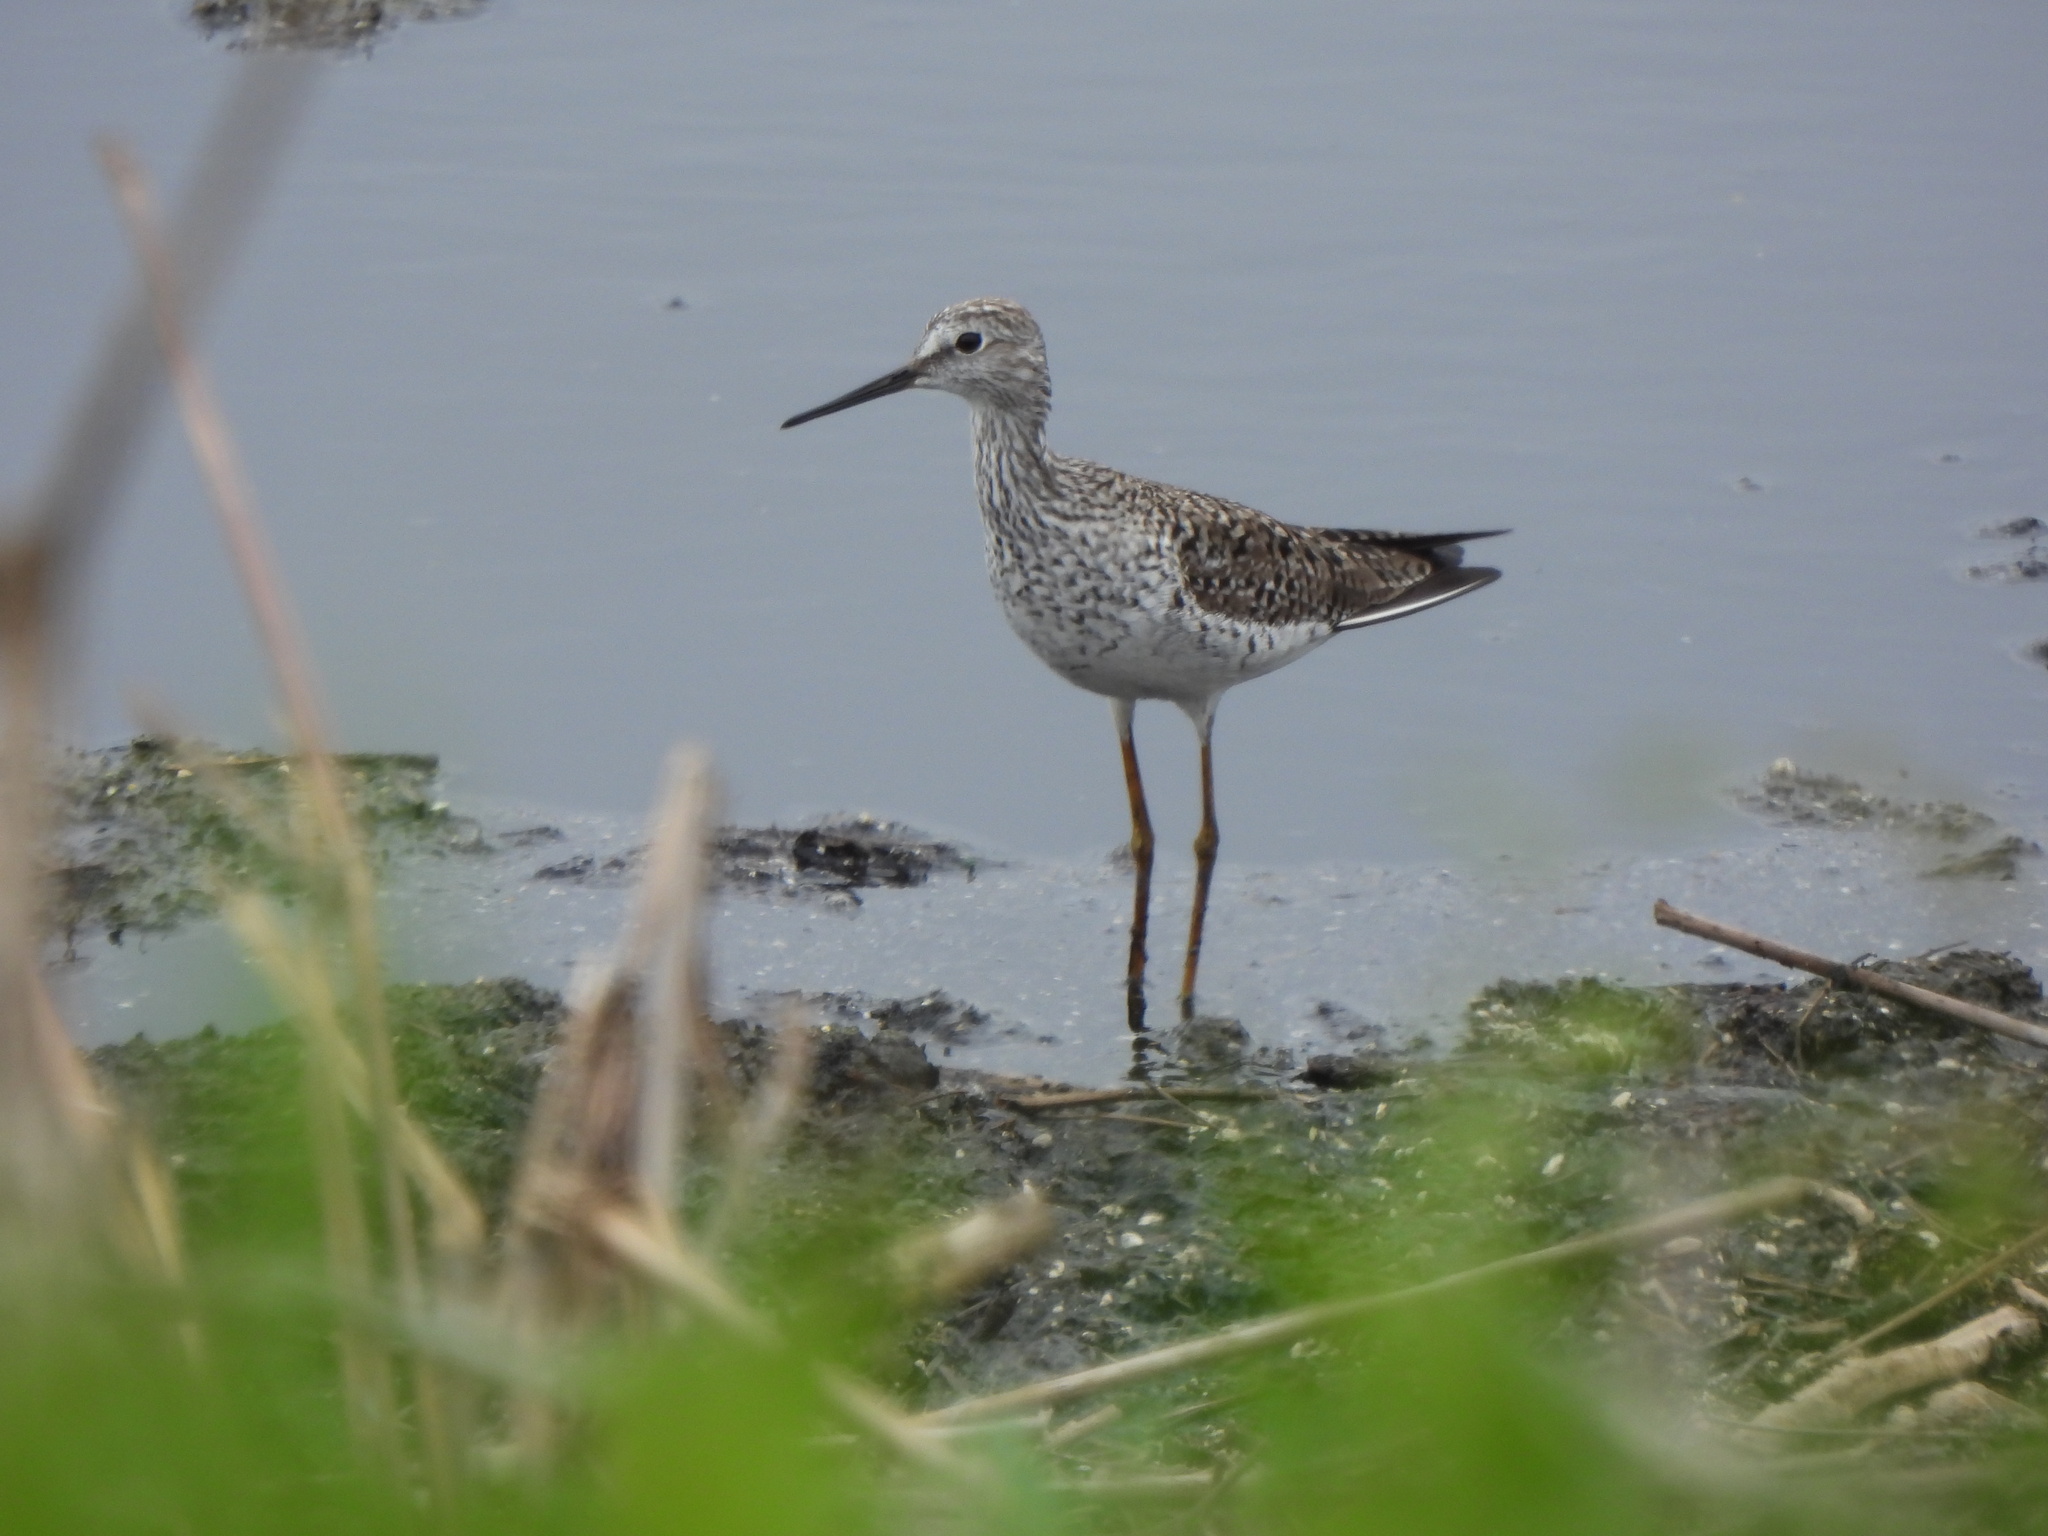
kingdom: Animalia
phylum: Chordata
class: Aves
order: Charadriiformes
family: Scolopacidae
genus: Tringa
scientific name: Tringa flavipes
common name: Lesser yellowlegs
